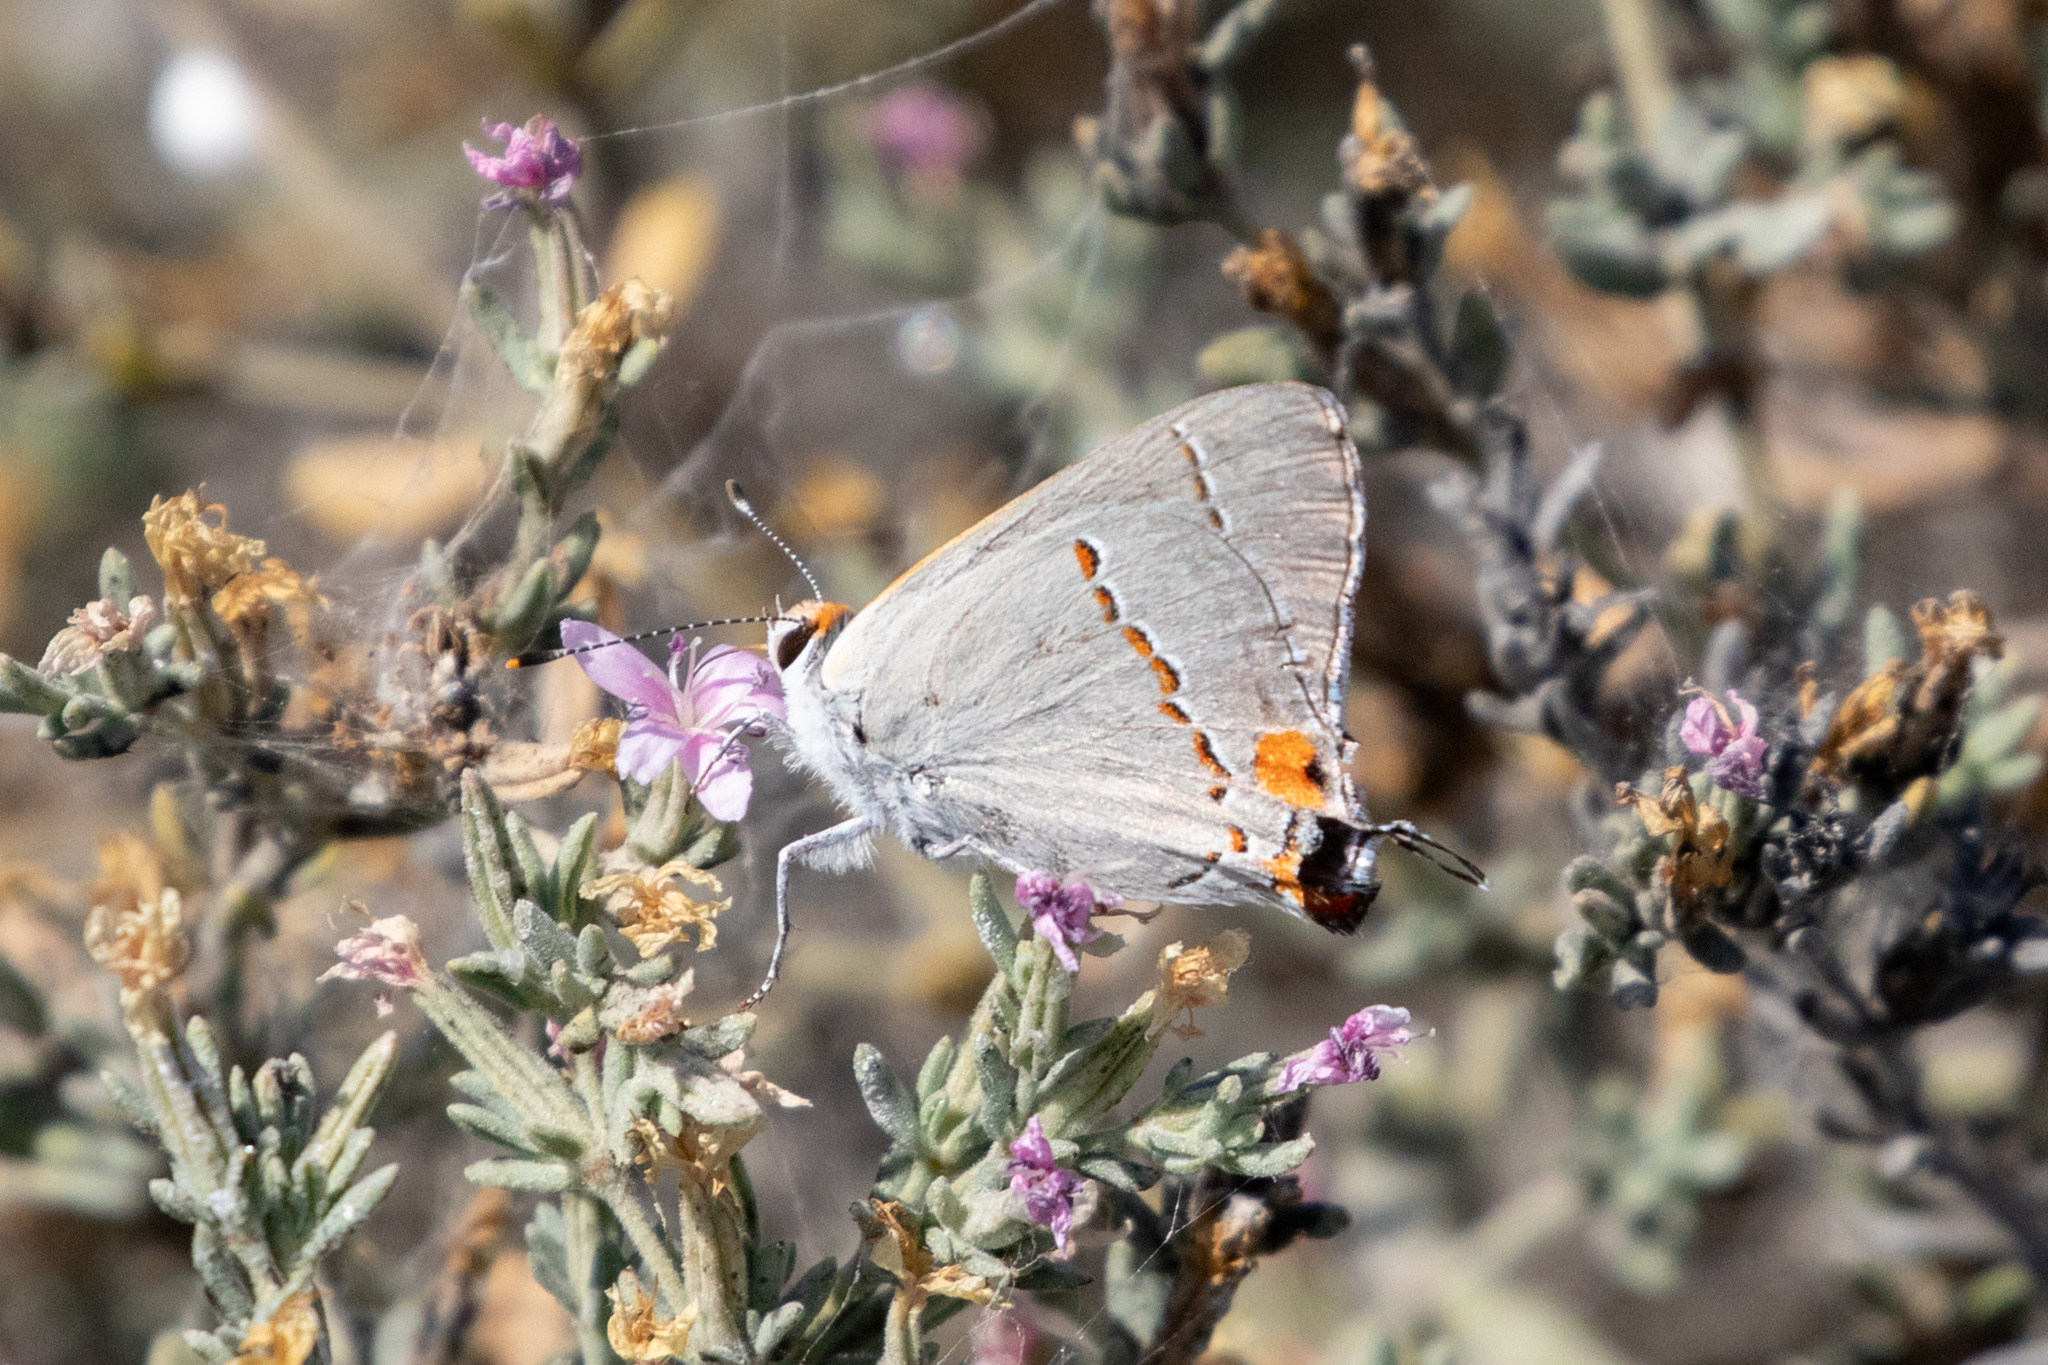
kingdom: Animalia
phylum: Arthropoda
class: Insecta
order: Lepidoptera
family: Lycaenidae
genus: Strymon
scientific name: Strymon melinus
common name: Gray hairstreak
